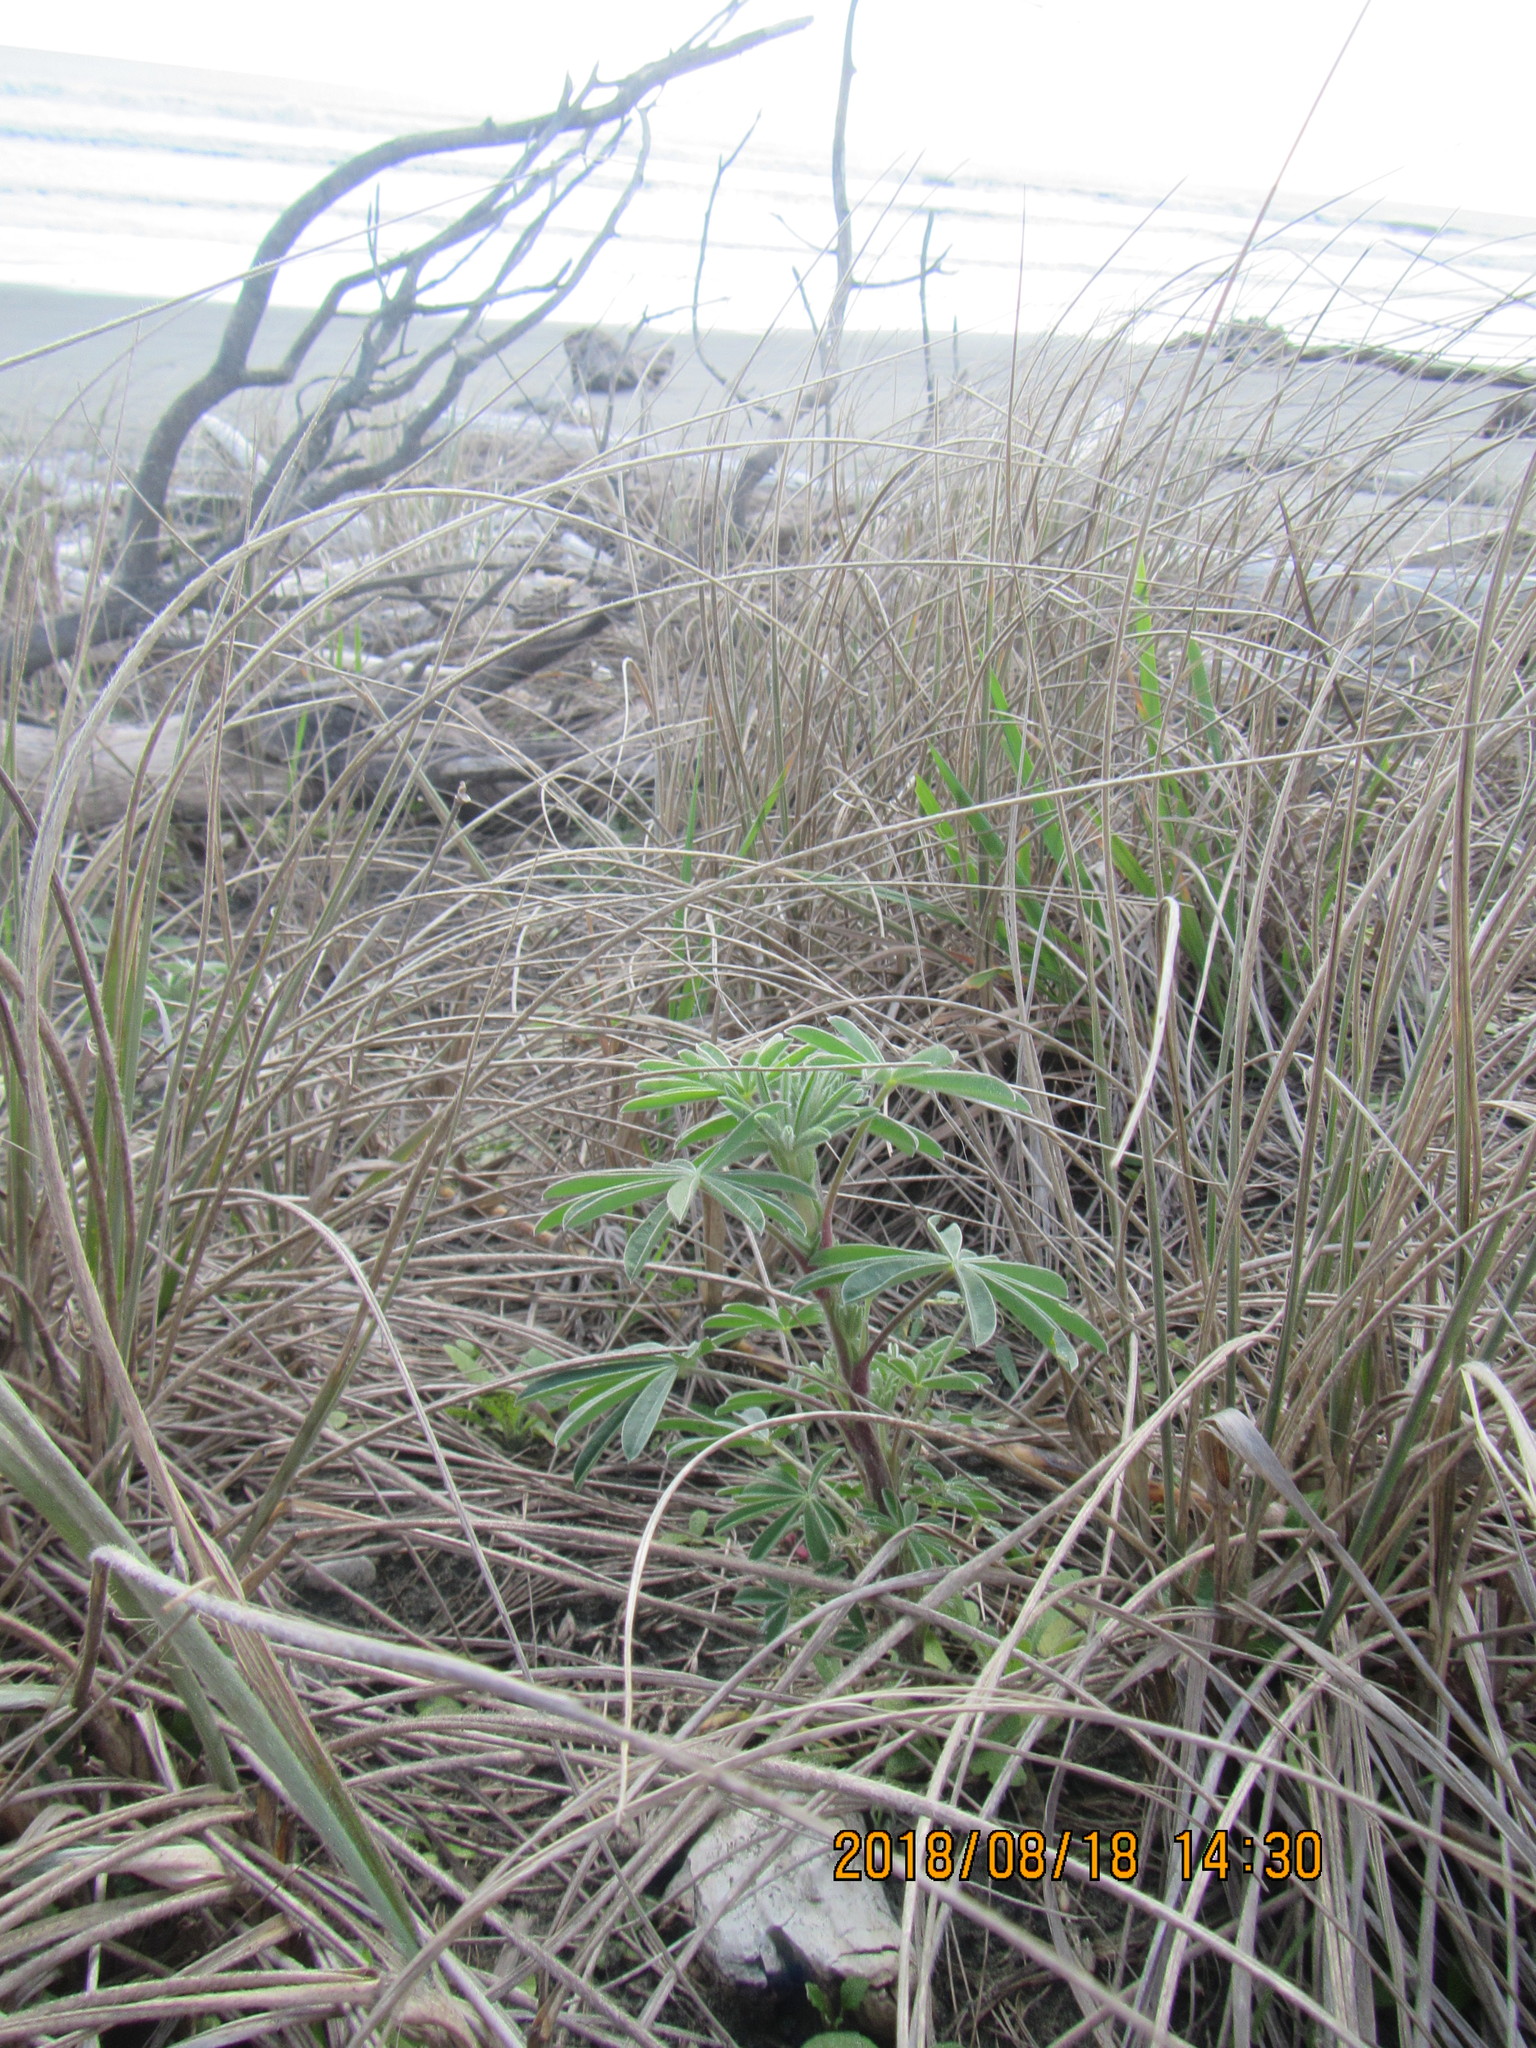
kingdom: Plantae
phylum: Tracheophyta
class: Magnoliopsida
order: Fabales
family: Fabaceae
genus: Lupinus
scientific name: Lupinus arboreus
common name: Yellow bush lupine
